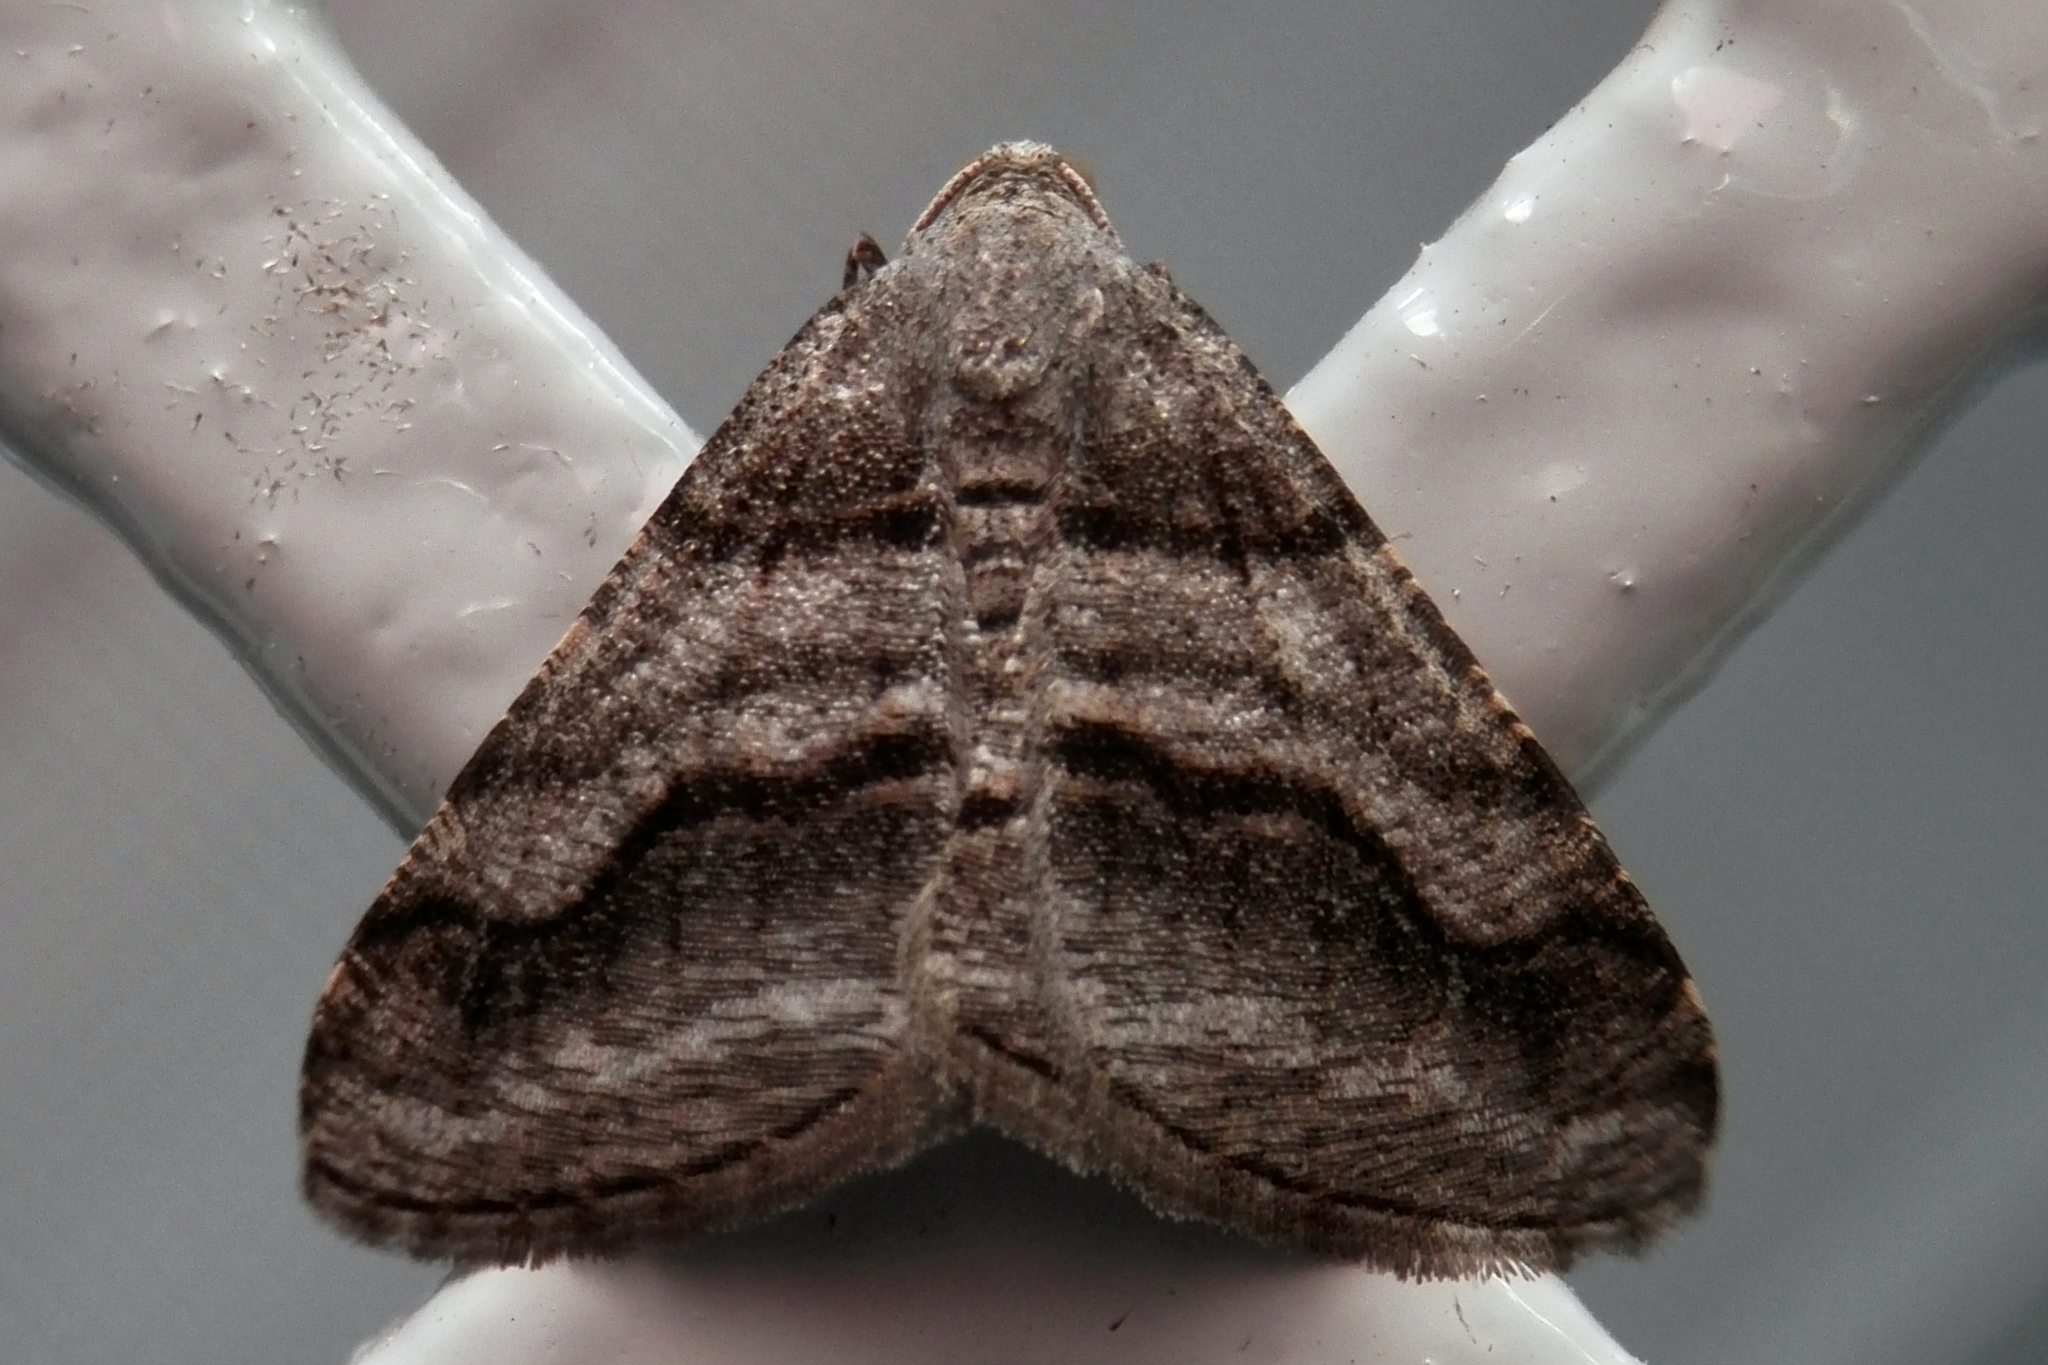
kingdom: Animalia
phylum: Arthropoda
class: Insecta
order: Lepidoptera
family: Geometridae
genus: Digrammia
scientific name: Digrammia continuata
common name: Curve-lined angle
